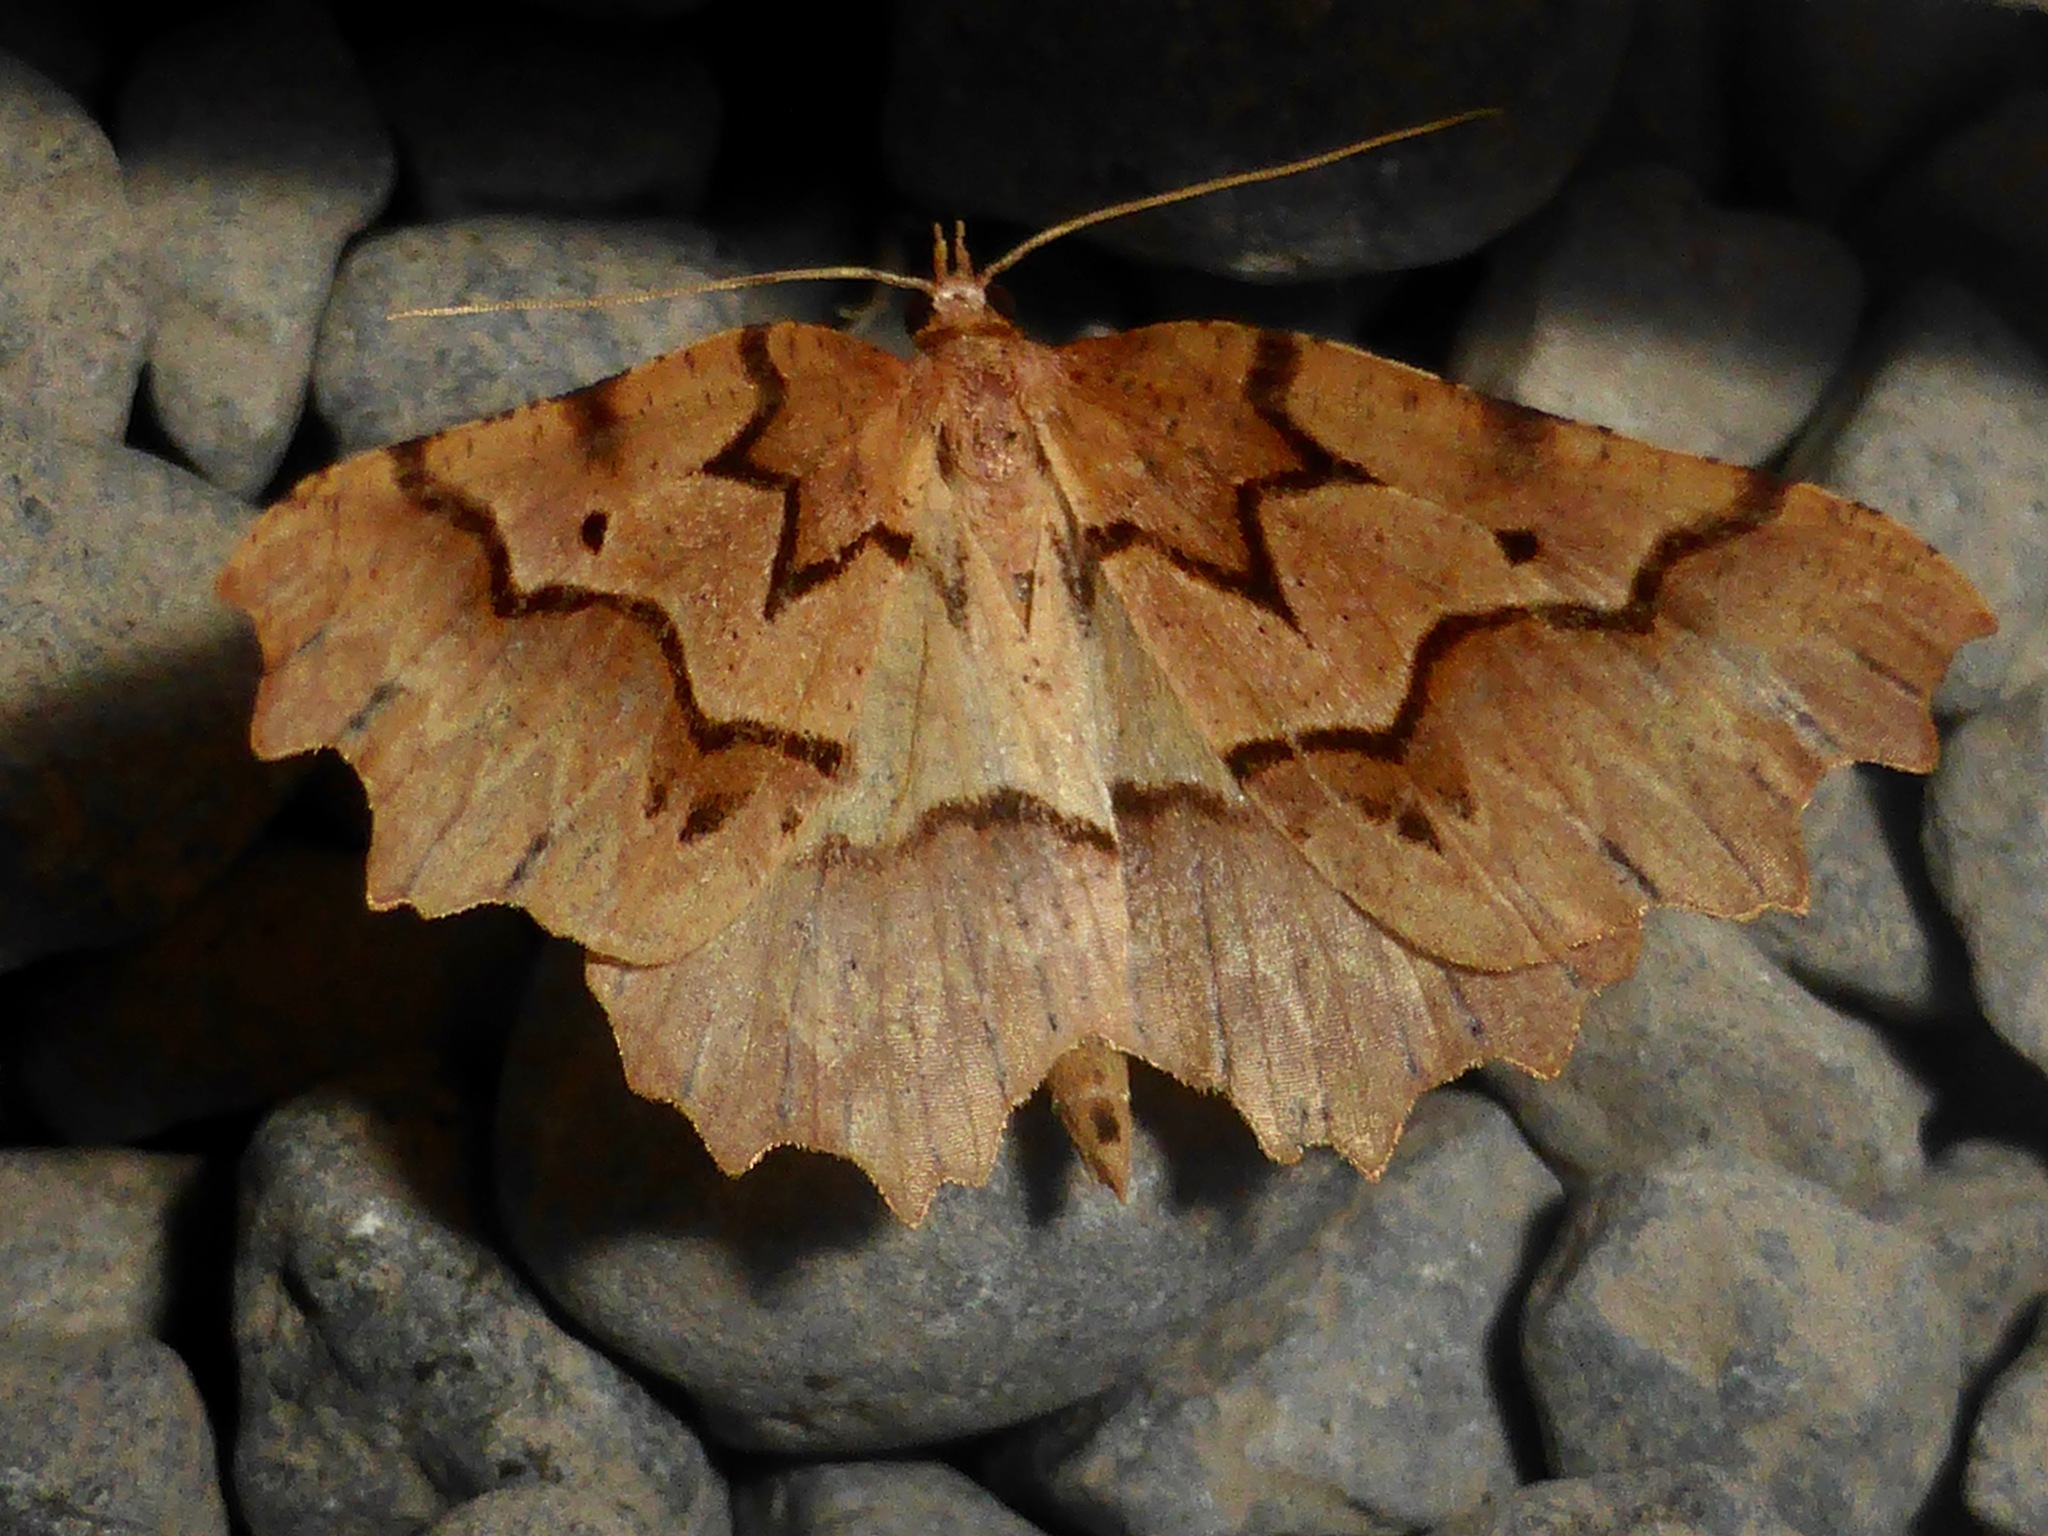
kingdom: Animalia
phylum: Arthropoda
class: Insecta
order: Lepidoptera
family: Geometridae
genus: Ischalis
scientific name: Ischalis fortinata
